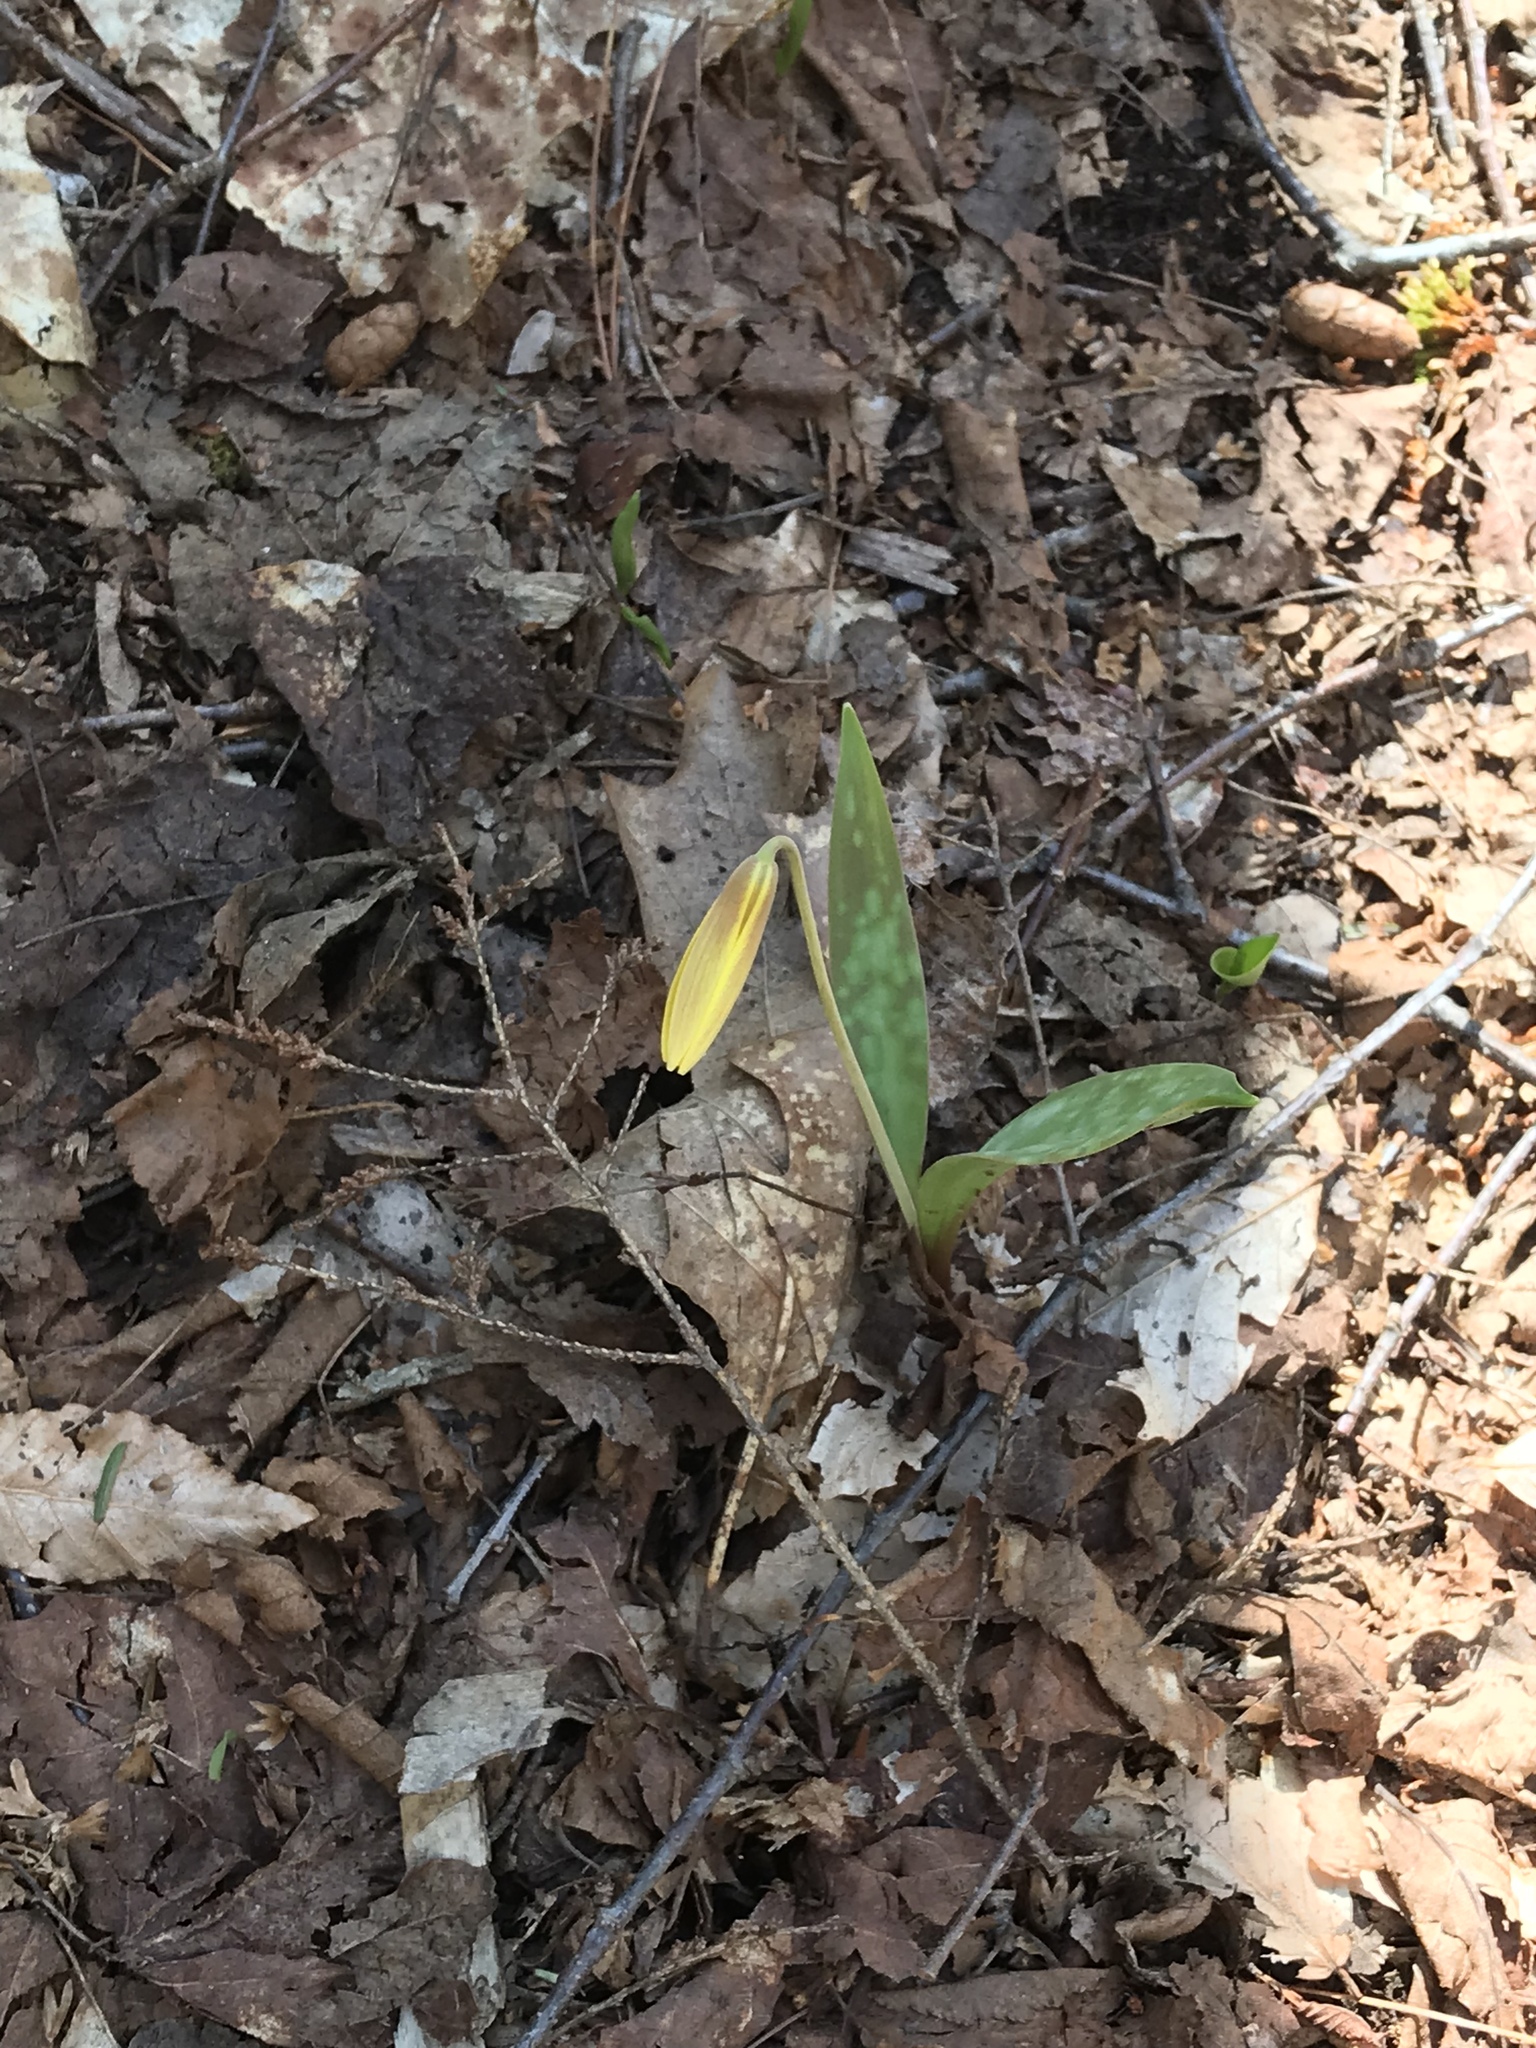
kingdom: Plantae
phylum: Tracheophyta
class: Liliopsida
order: Liliales
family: Liliaceae
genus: Erythronium
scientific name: Erythronium americanum
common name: Yellow adder's-tongue
